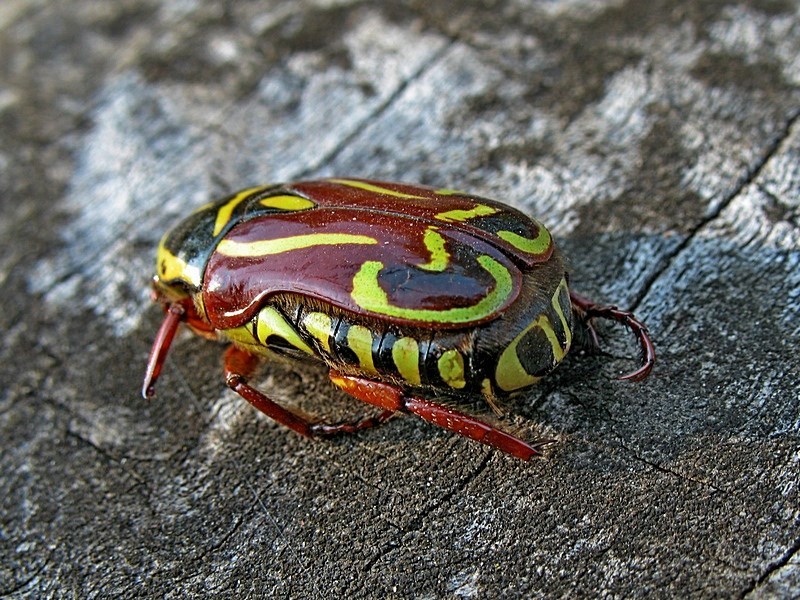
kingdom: Animalia
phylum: Arthropoda
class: Insecta
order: Coleoptera
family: Scarabaeidae
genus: Eupoecila
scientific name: Eupoecila australasiae
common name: Fiddler beetle
